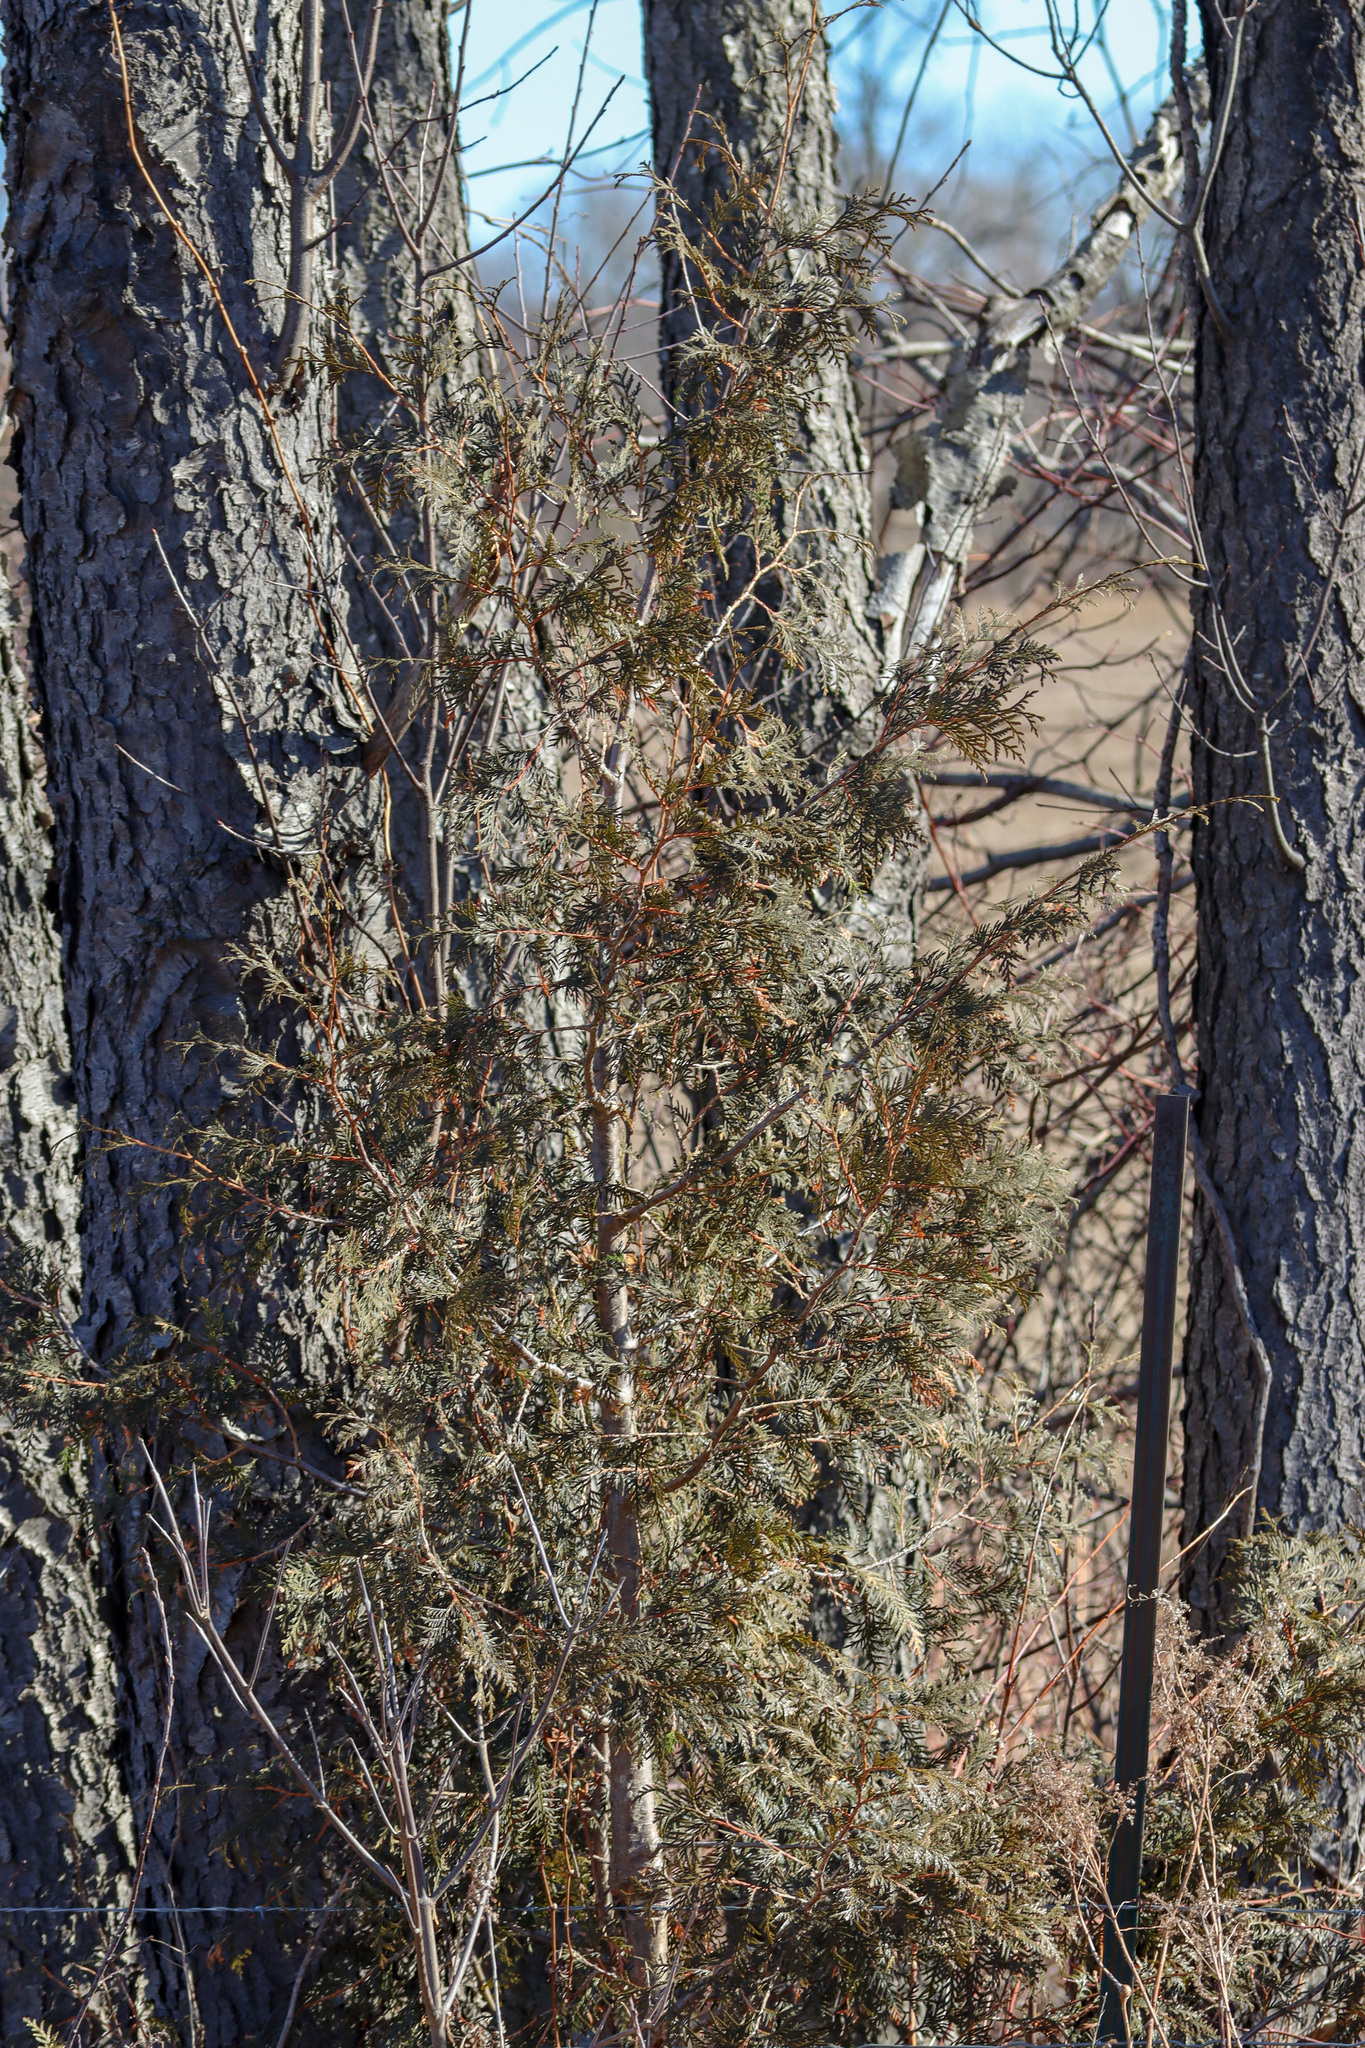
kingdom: Plantae
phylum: Tracheophyta
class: Pinopsida
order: Pinales
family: Cupressaceae
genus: Thuja
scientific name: Thuja occidentalis
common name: Northern white-cedar
